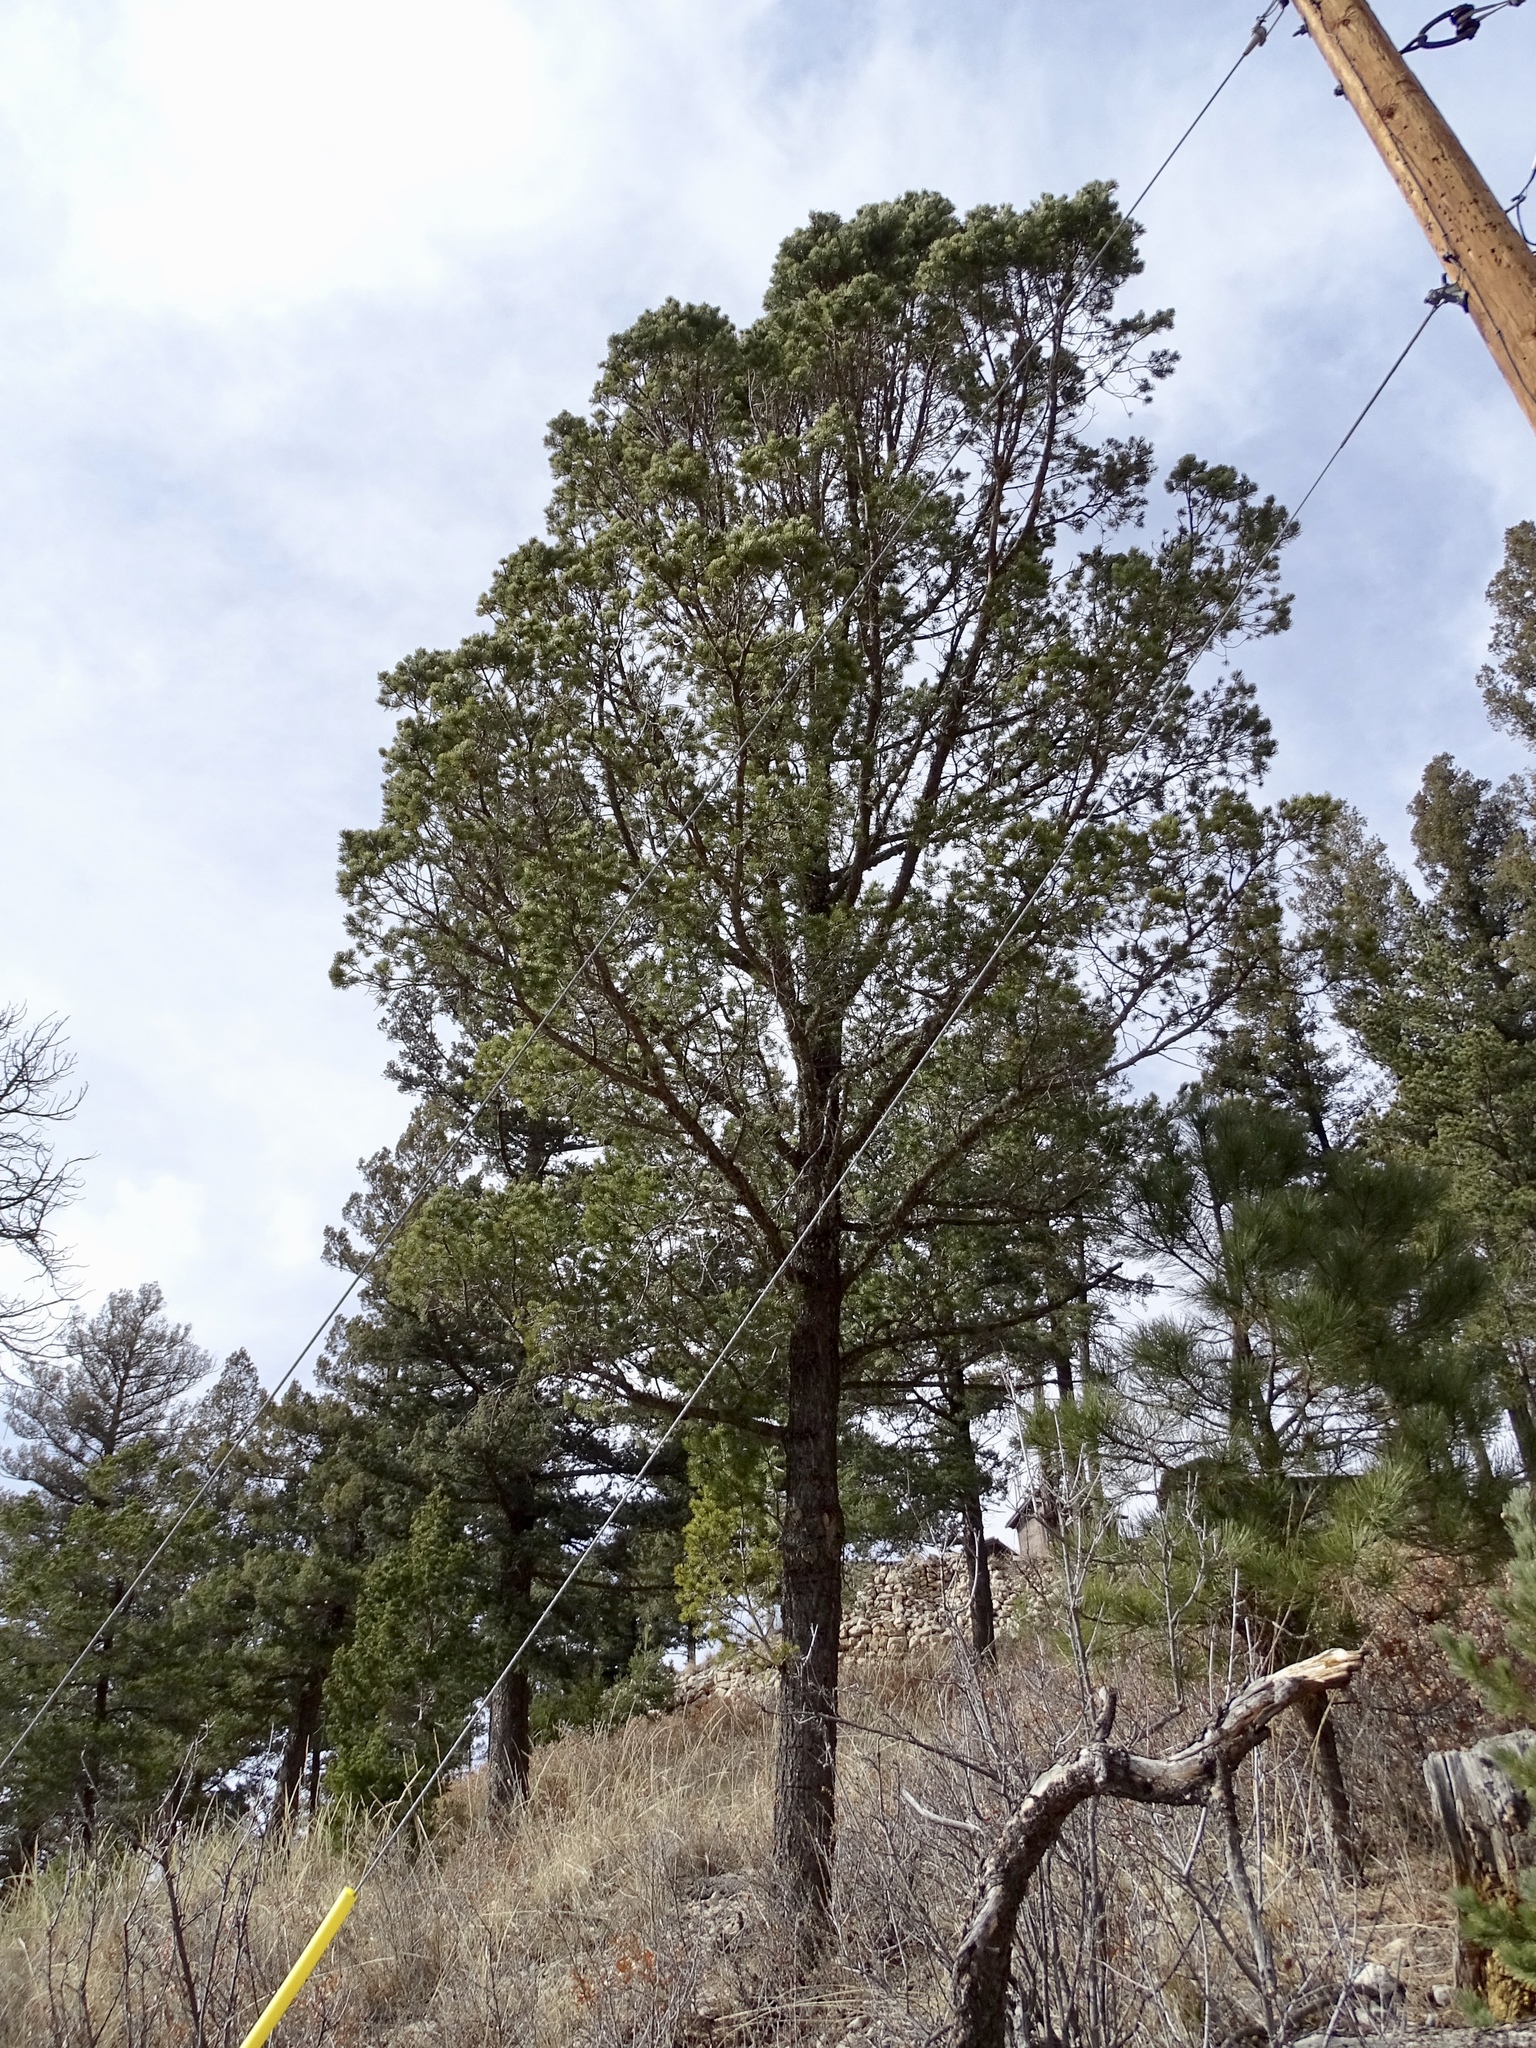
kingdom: Plantae
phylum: Tracheophyta
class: Pinopsida
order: Pinales
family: Pinaceae
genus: Pinus
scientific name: Pinus edulis
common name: Colorado pinyon
